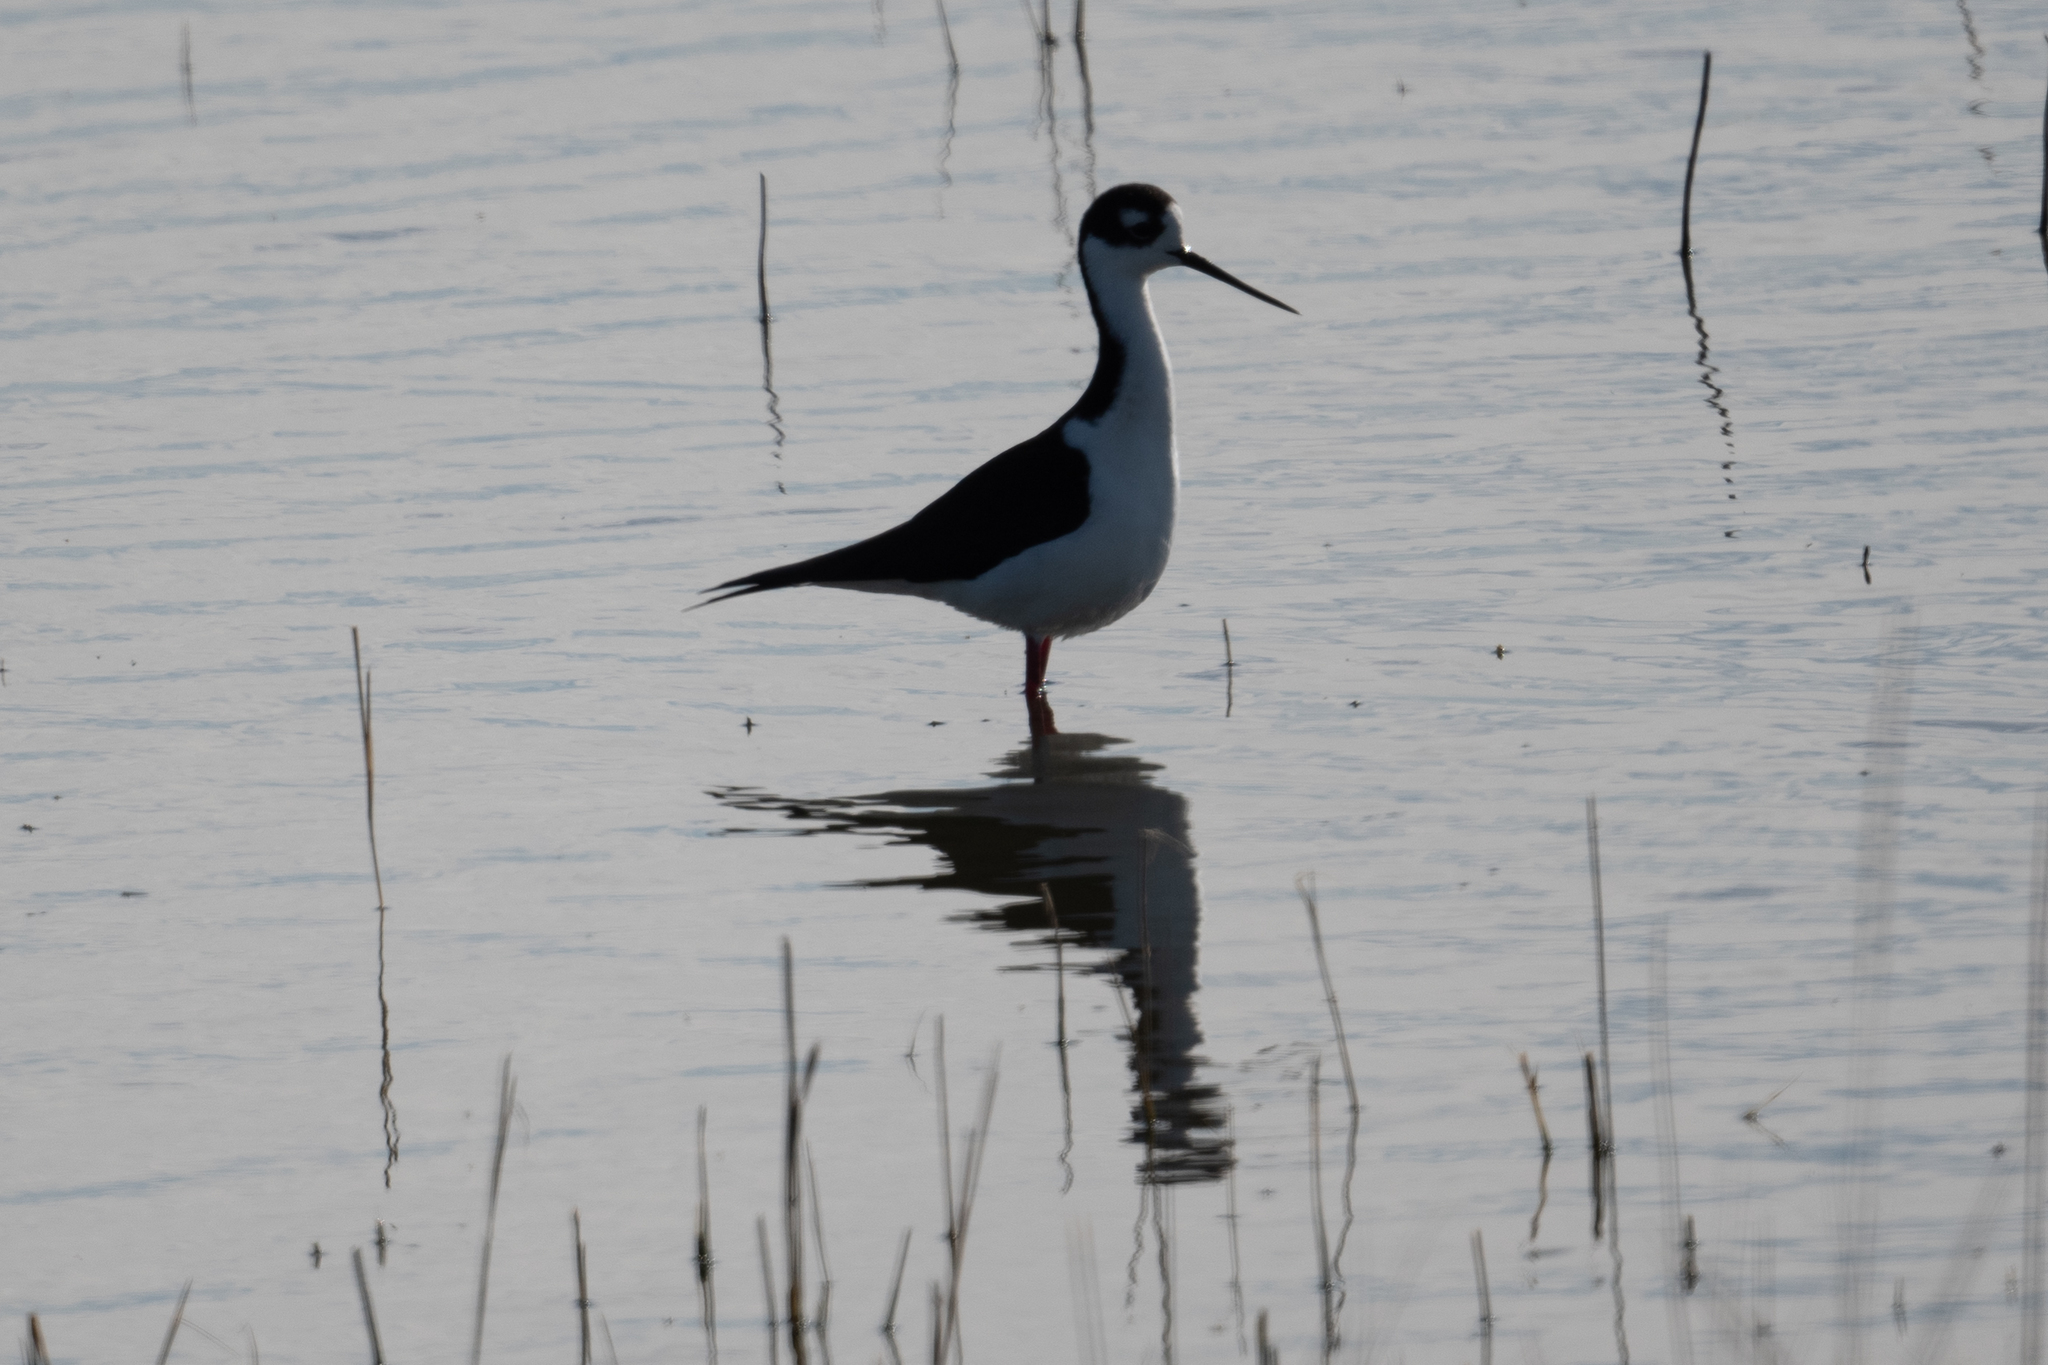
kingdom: Animalia
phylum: Chordata
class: Aves
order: Charadriiformes
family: Recurvirostridae
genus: Himantopus
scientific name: Himantopus mexicanus
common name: Black-necked stilt
